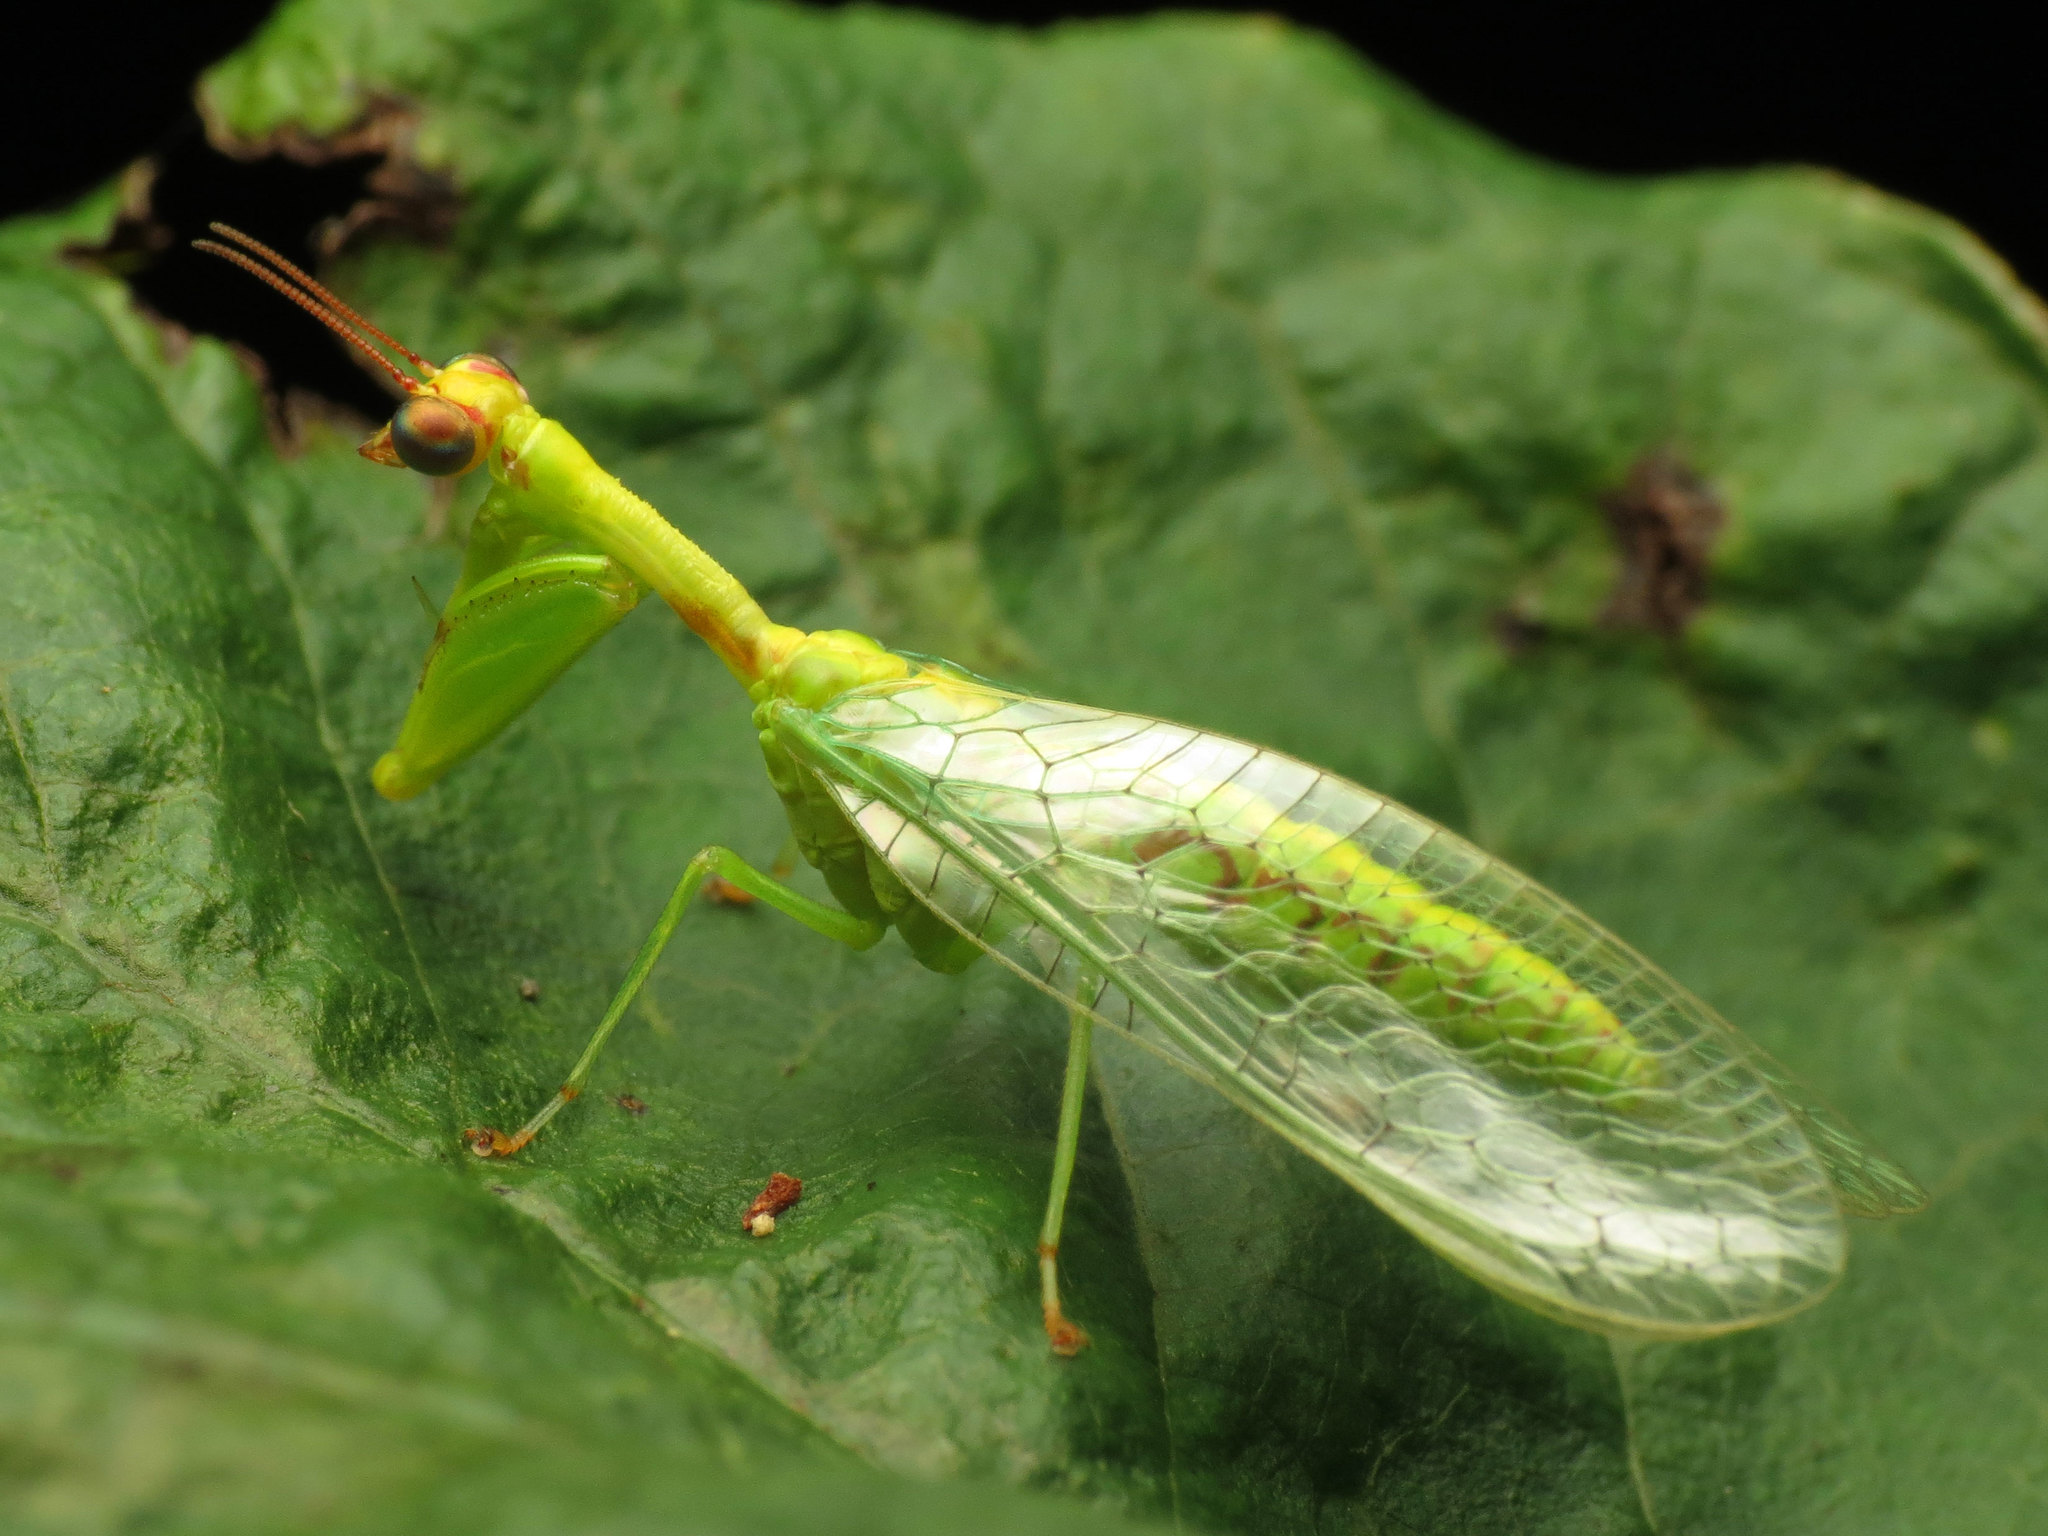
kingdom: Animalia
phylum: Arthropoda
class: Insecta
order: Neuroptera
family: Mantispidae
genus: Zeugomantispa
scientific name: Zeugomantispa minuta
